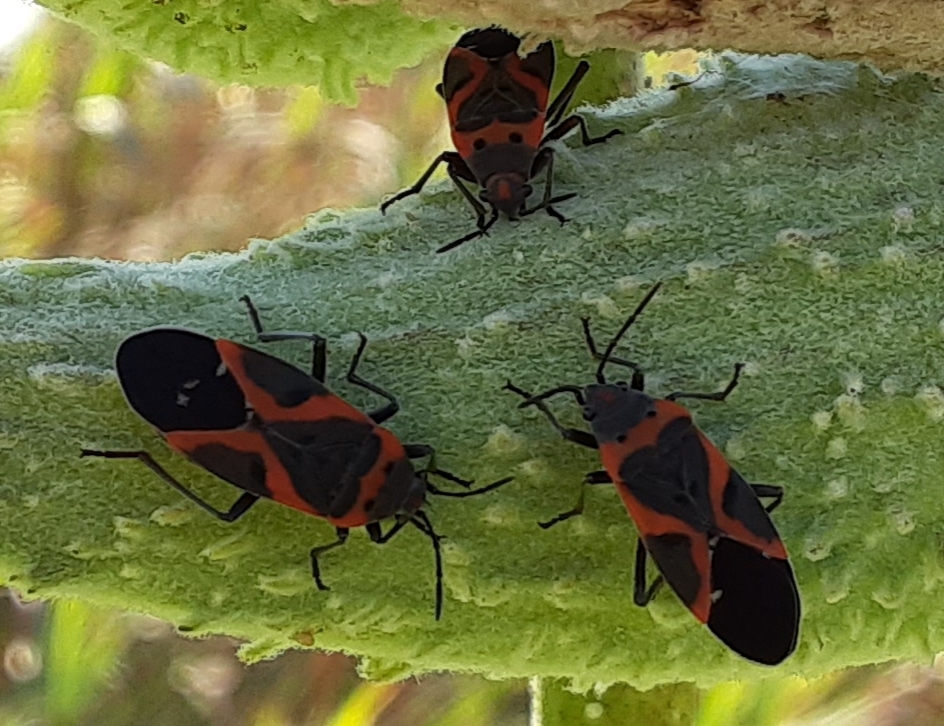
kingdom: Animalia
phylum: Arthropoda
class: Insecta
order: Hemiptera
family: Lygaeidae
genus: Lygaeus
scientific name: Lygaeus kalmii
